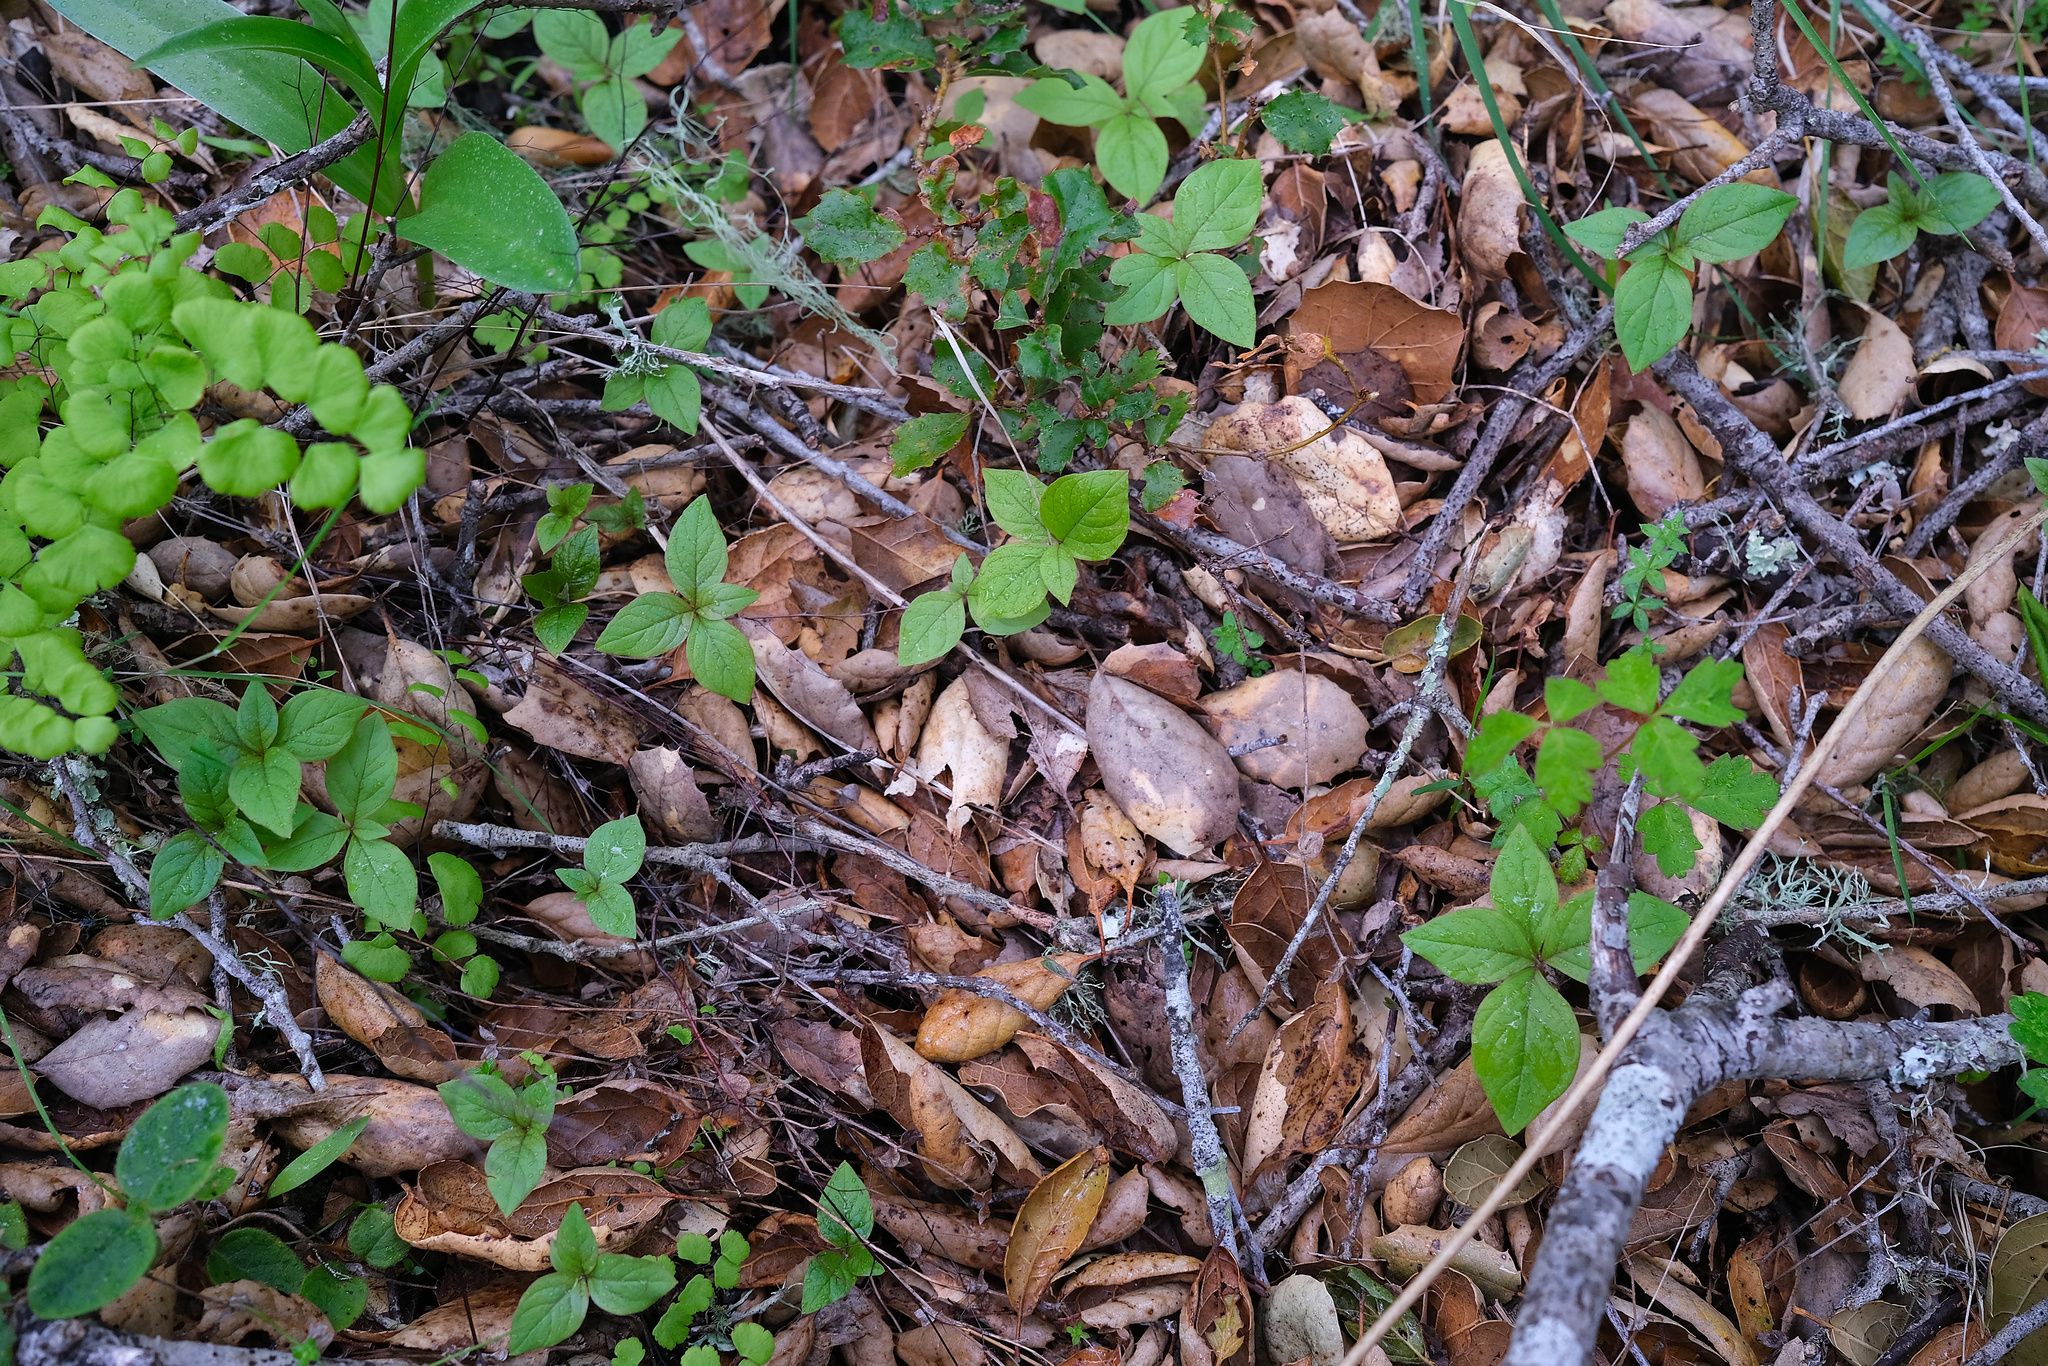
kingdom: Plantae
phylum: Tracheophyta
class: Magnoliopsida
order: Ericales
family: Primulaceae
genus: Lysimachia
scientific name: Lysimachia latifolia
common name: Pacific starflower
